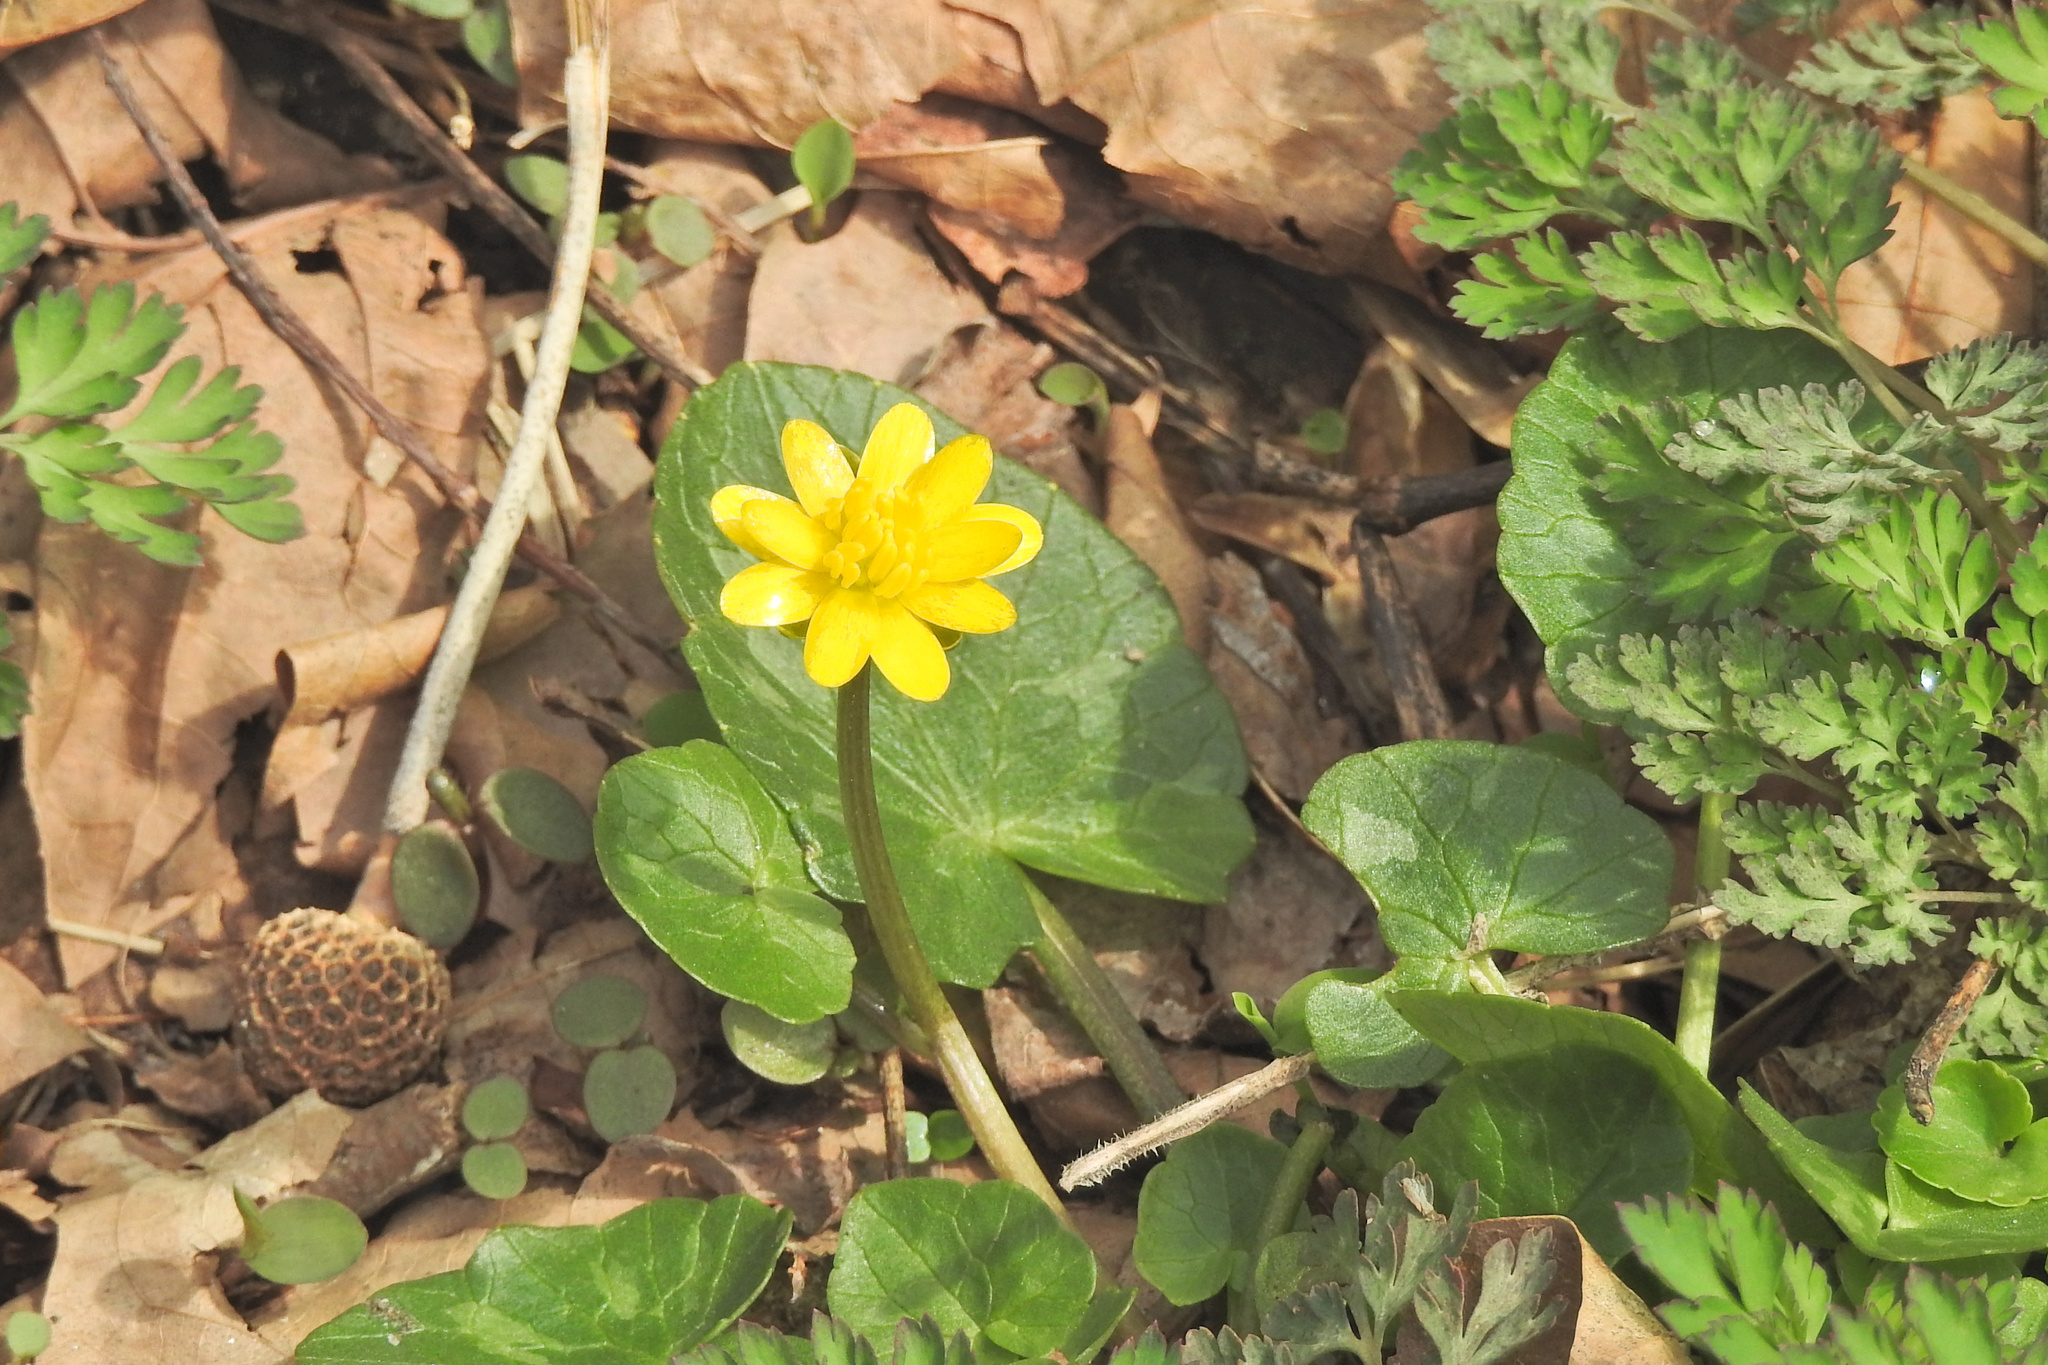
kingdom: Plantae
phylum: Tracheophyta
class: Magnoliopsida
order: Ranunculales
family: Ranunculaceae
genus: Ficaria
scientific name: Ficaria verna
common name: Lesser celandine
